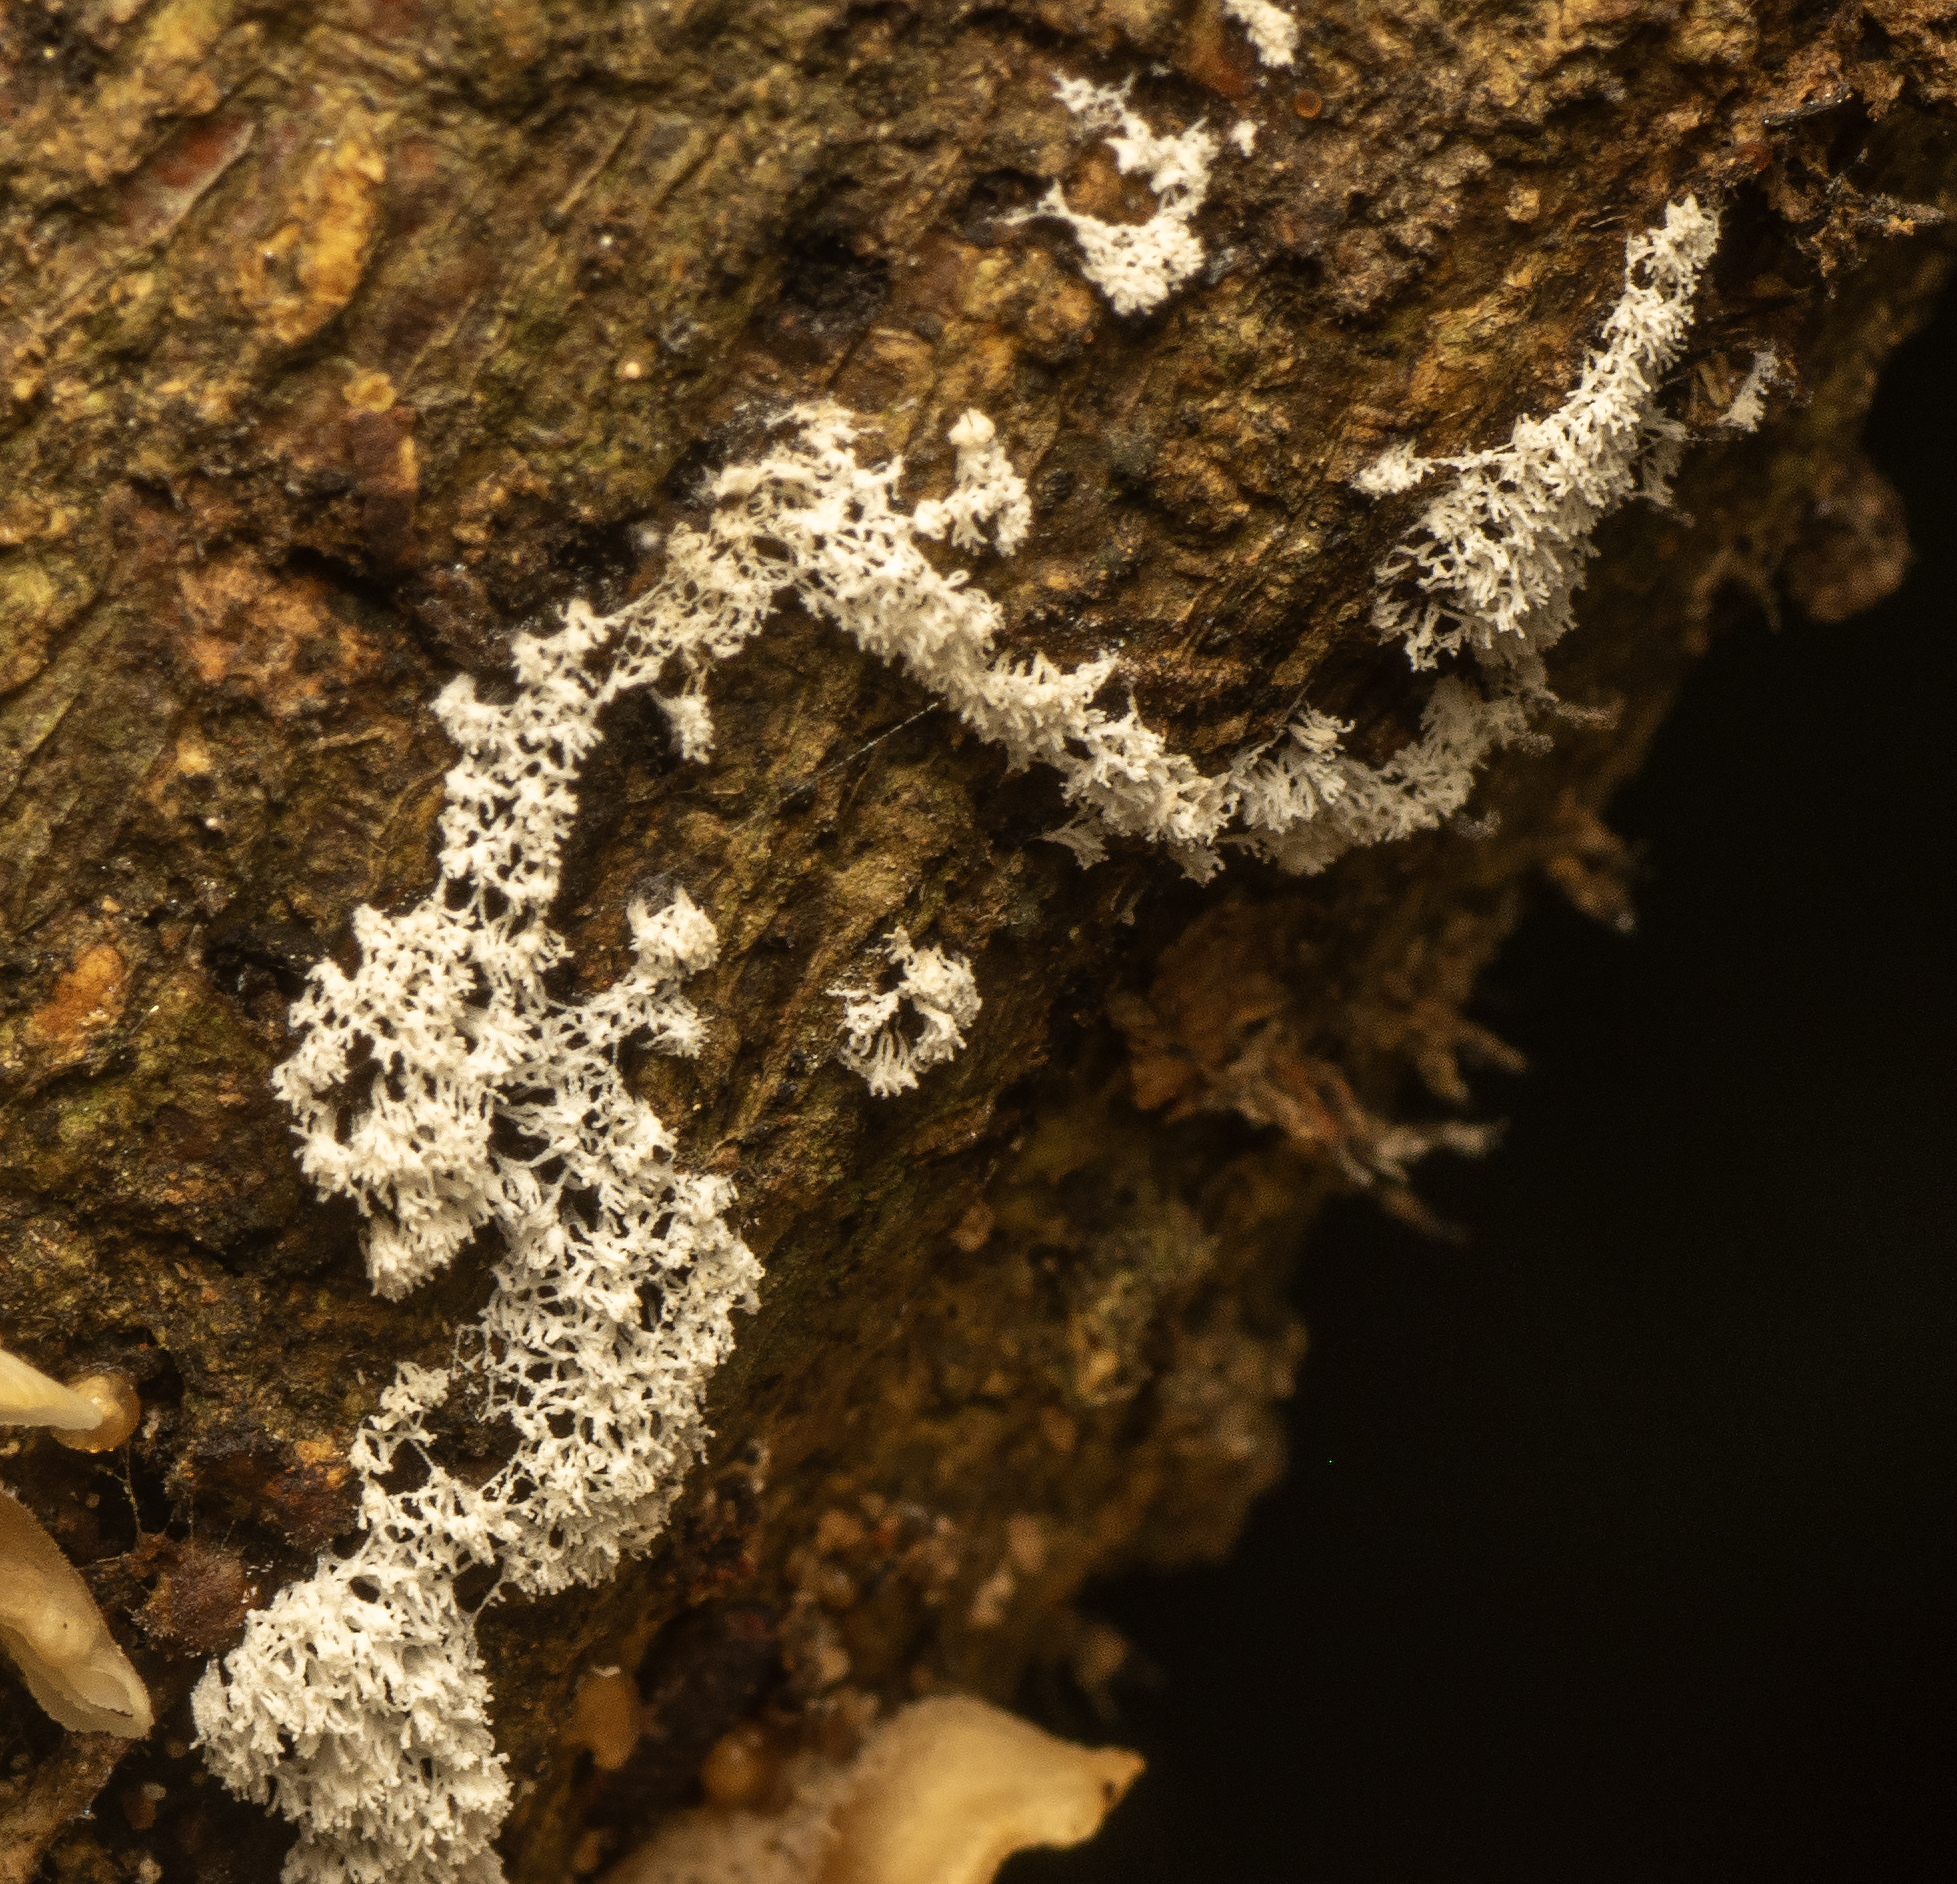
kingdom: Protozoa
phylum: Mycetozoa
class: Protosteliomycetes
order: Ceratiomyxales
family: Ceratiomyxaceae
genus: Ceratiomyxa
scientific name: Ceratiomyxa fruticulosa
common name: Honeycomb coral slime mold
